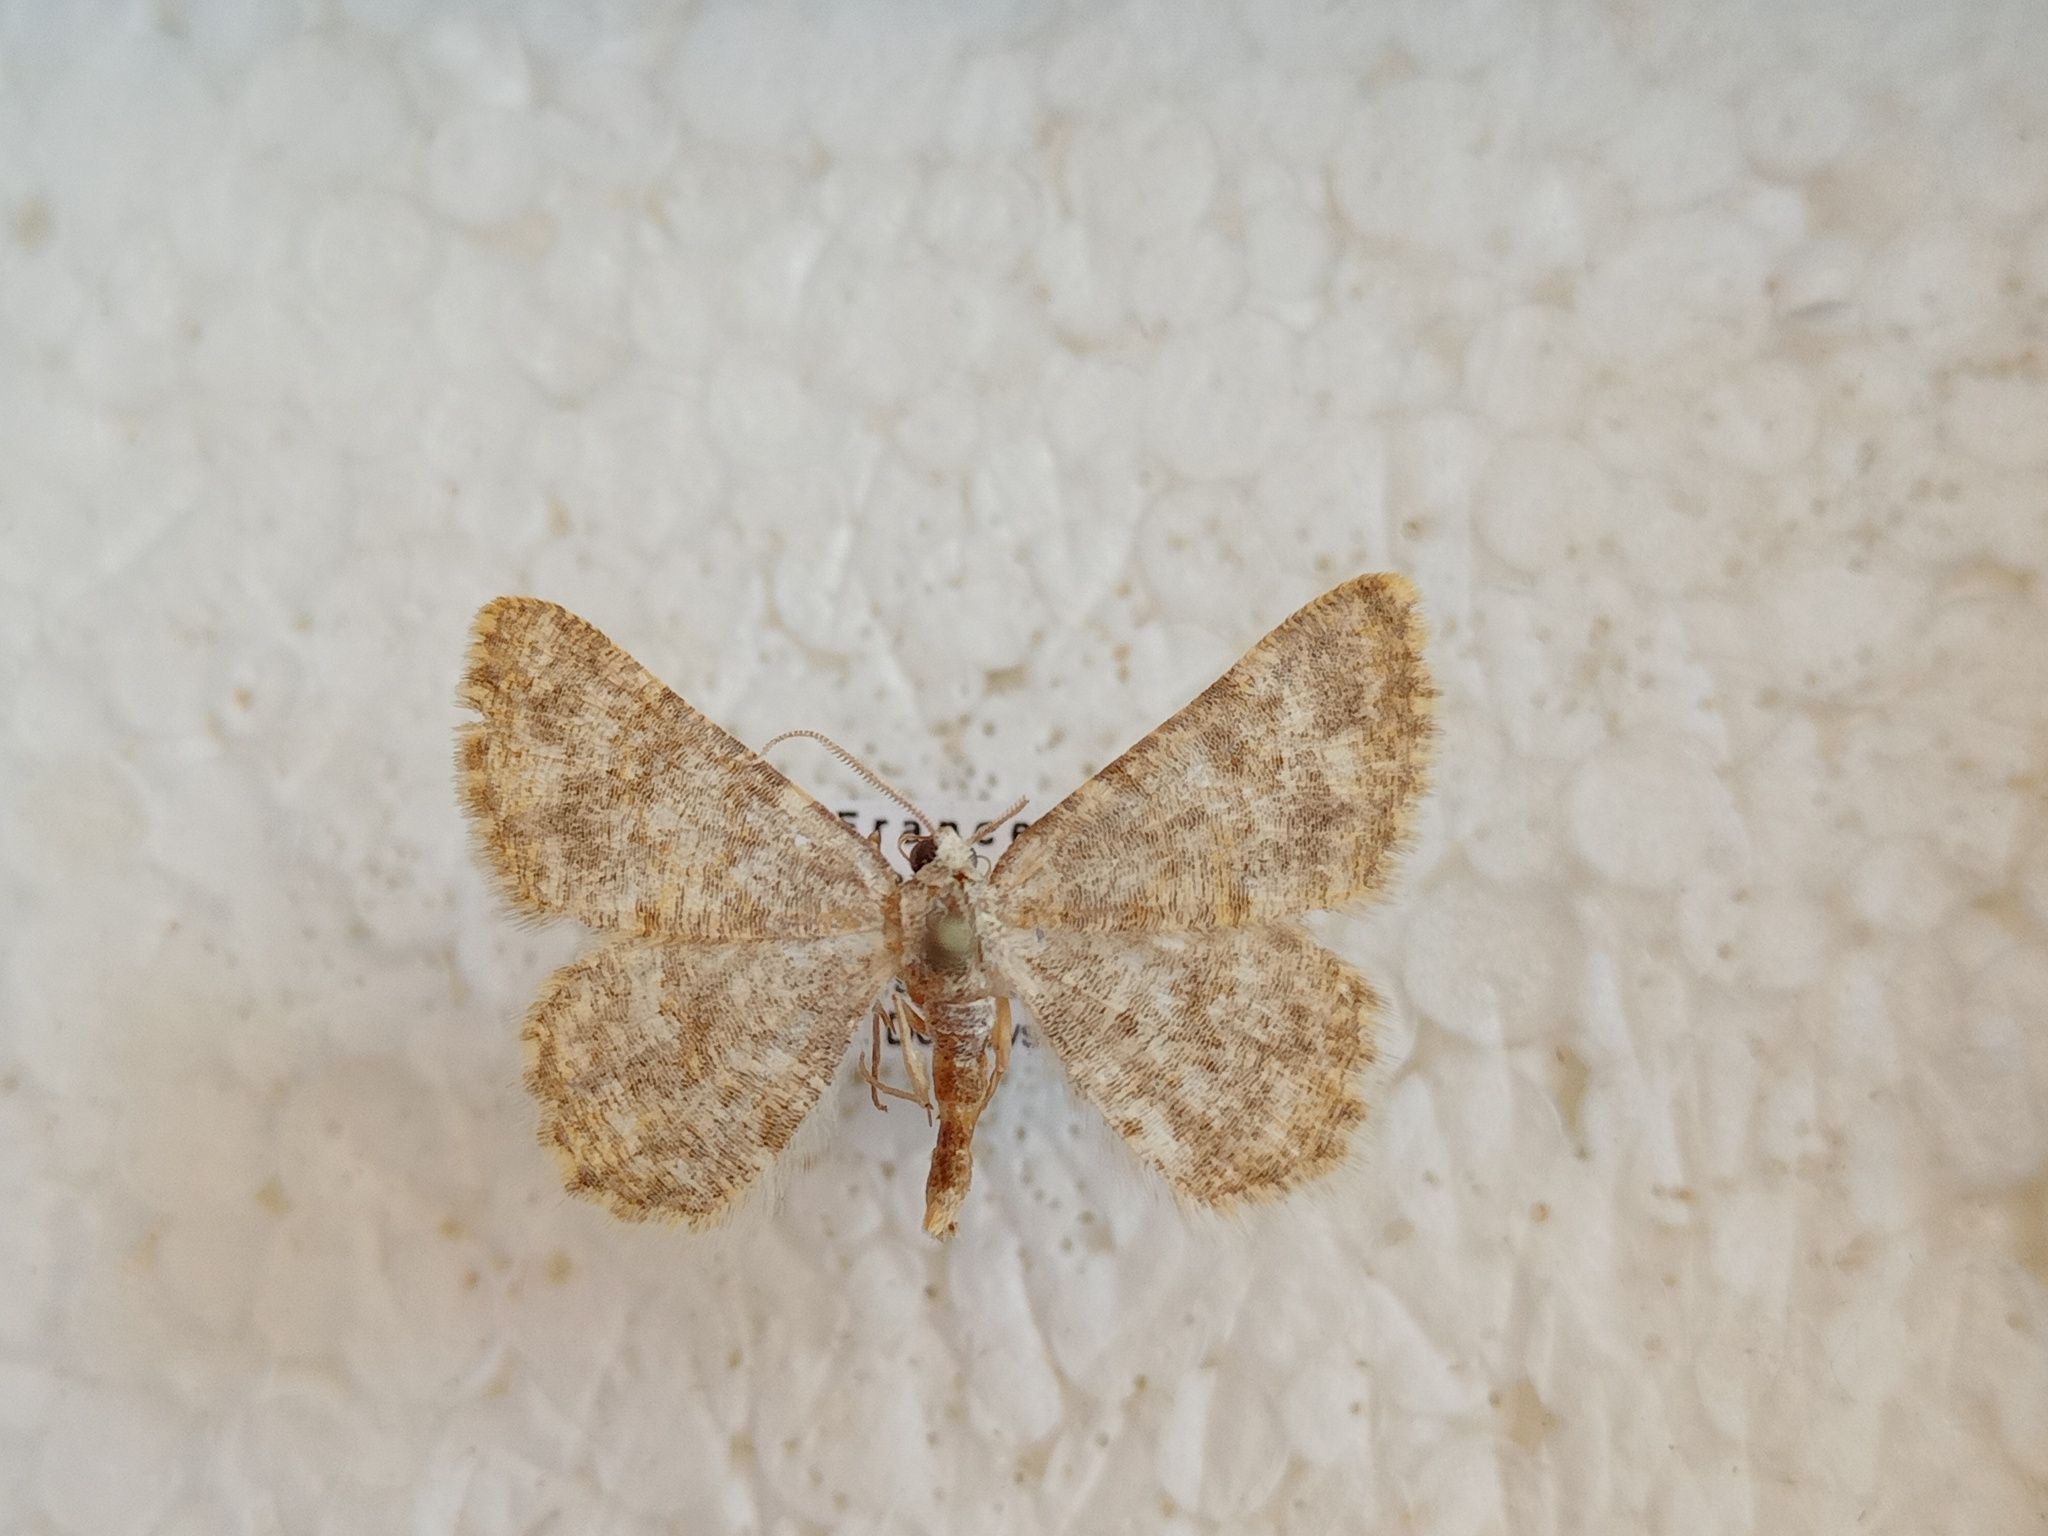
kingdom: Animalia
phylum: Arthropoda
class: Insecta
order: Lepidoptera
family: Geometridae
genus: Charissa
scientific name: Charissa mucidaria
